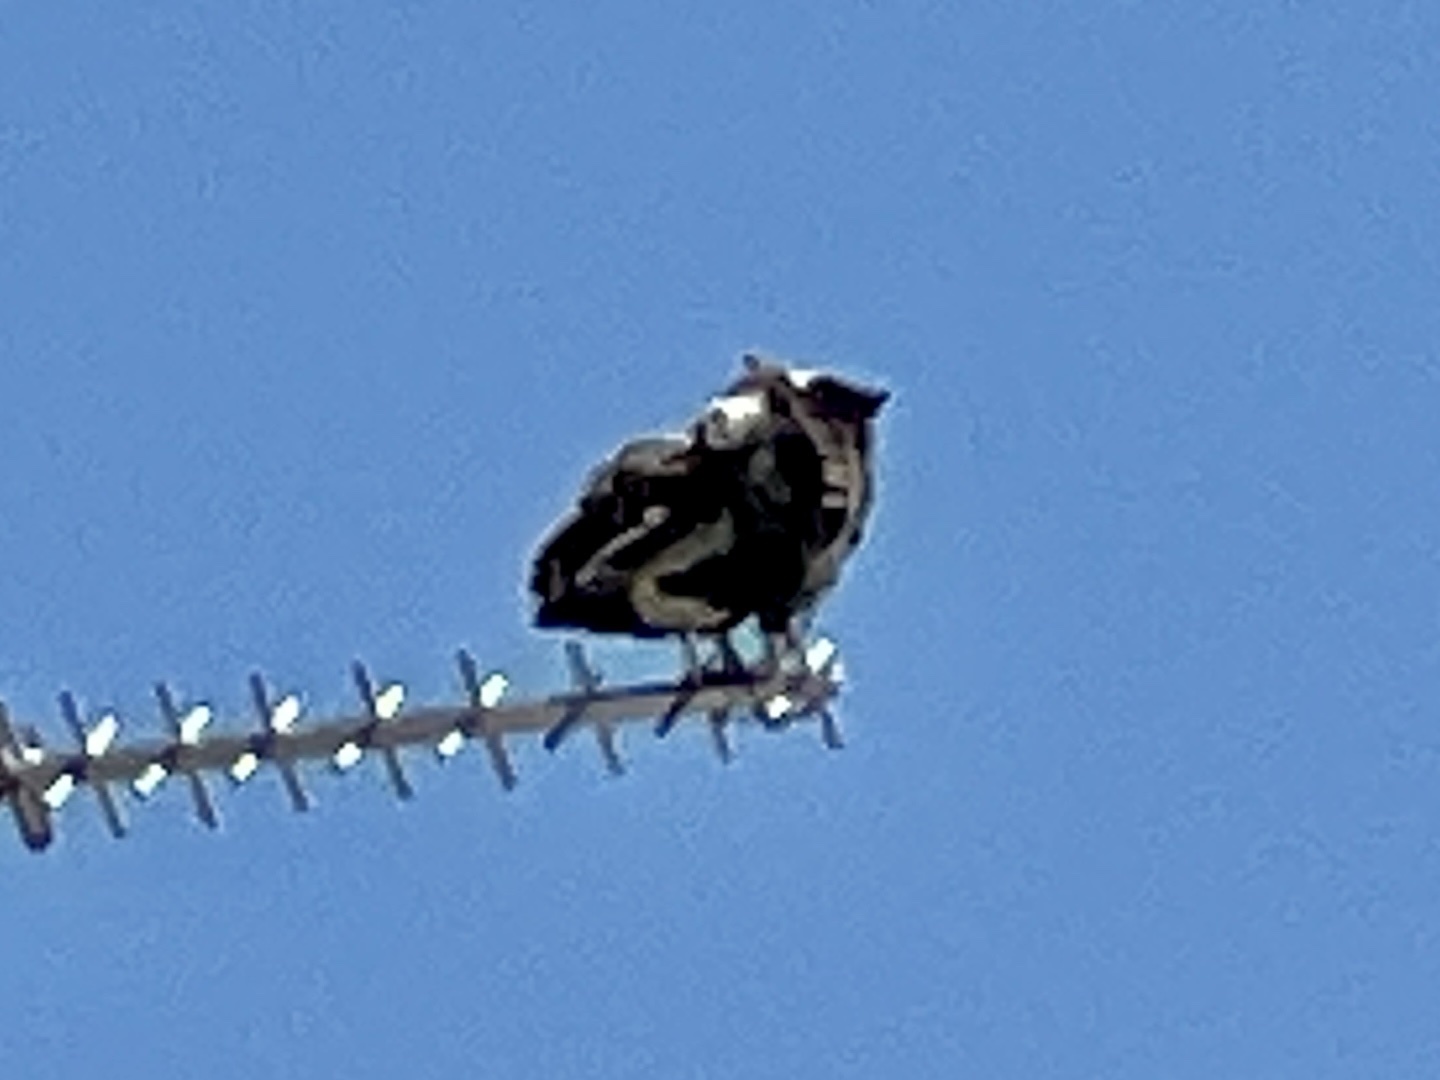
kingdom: Animalia
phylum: Chordata
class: Aves
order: Accipitriformes
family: Pandionidae
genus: Pandion
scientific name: Pandion haliaetus
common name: Osprey
